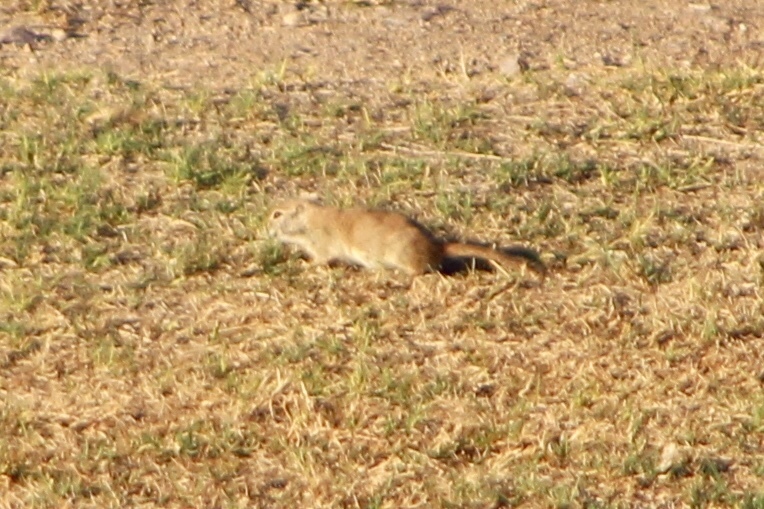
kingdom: Animalia
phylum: Chordata
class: Mammalia
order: Rodentia
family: Sciuridae
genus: Xerospermophilus
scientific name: Xerospermophilus tereticaudus
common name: Round-tailed ground squirrel
